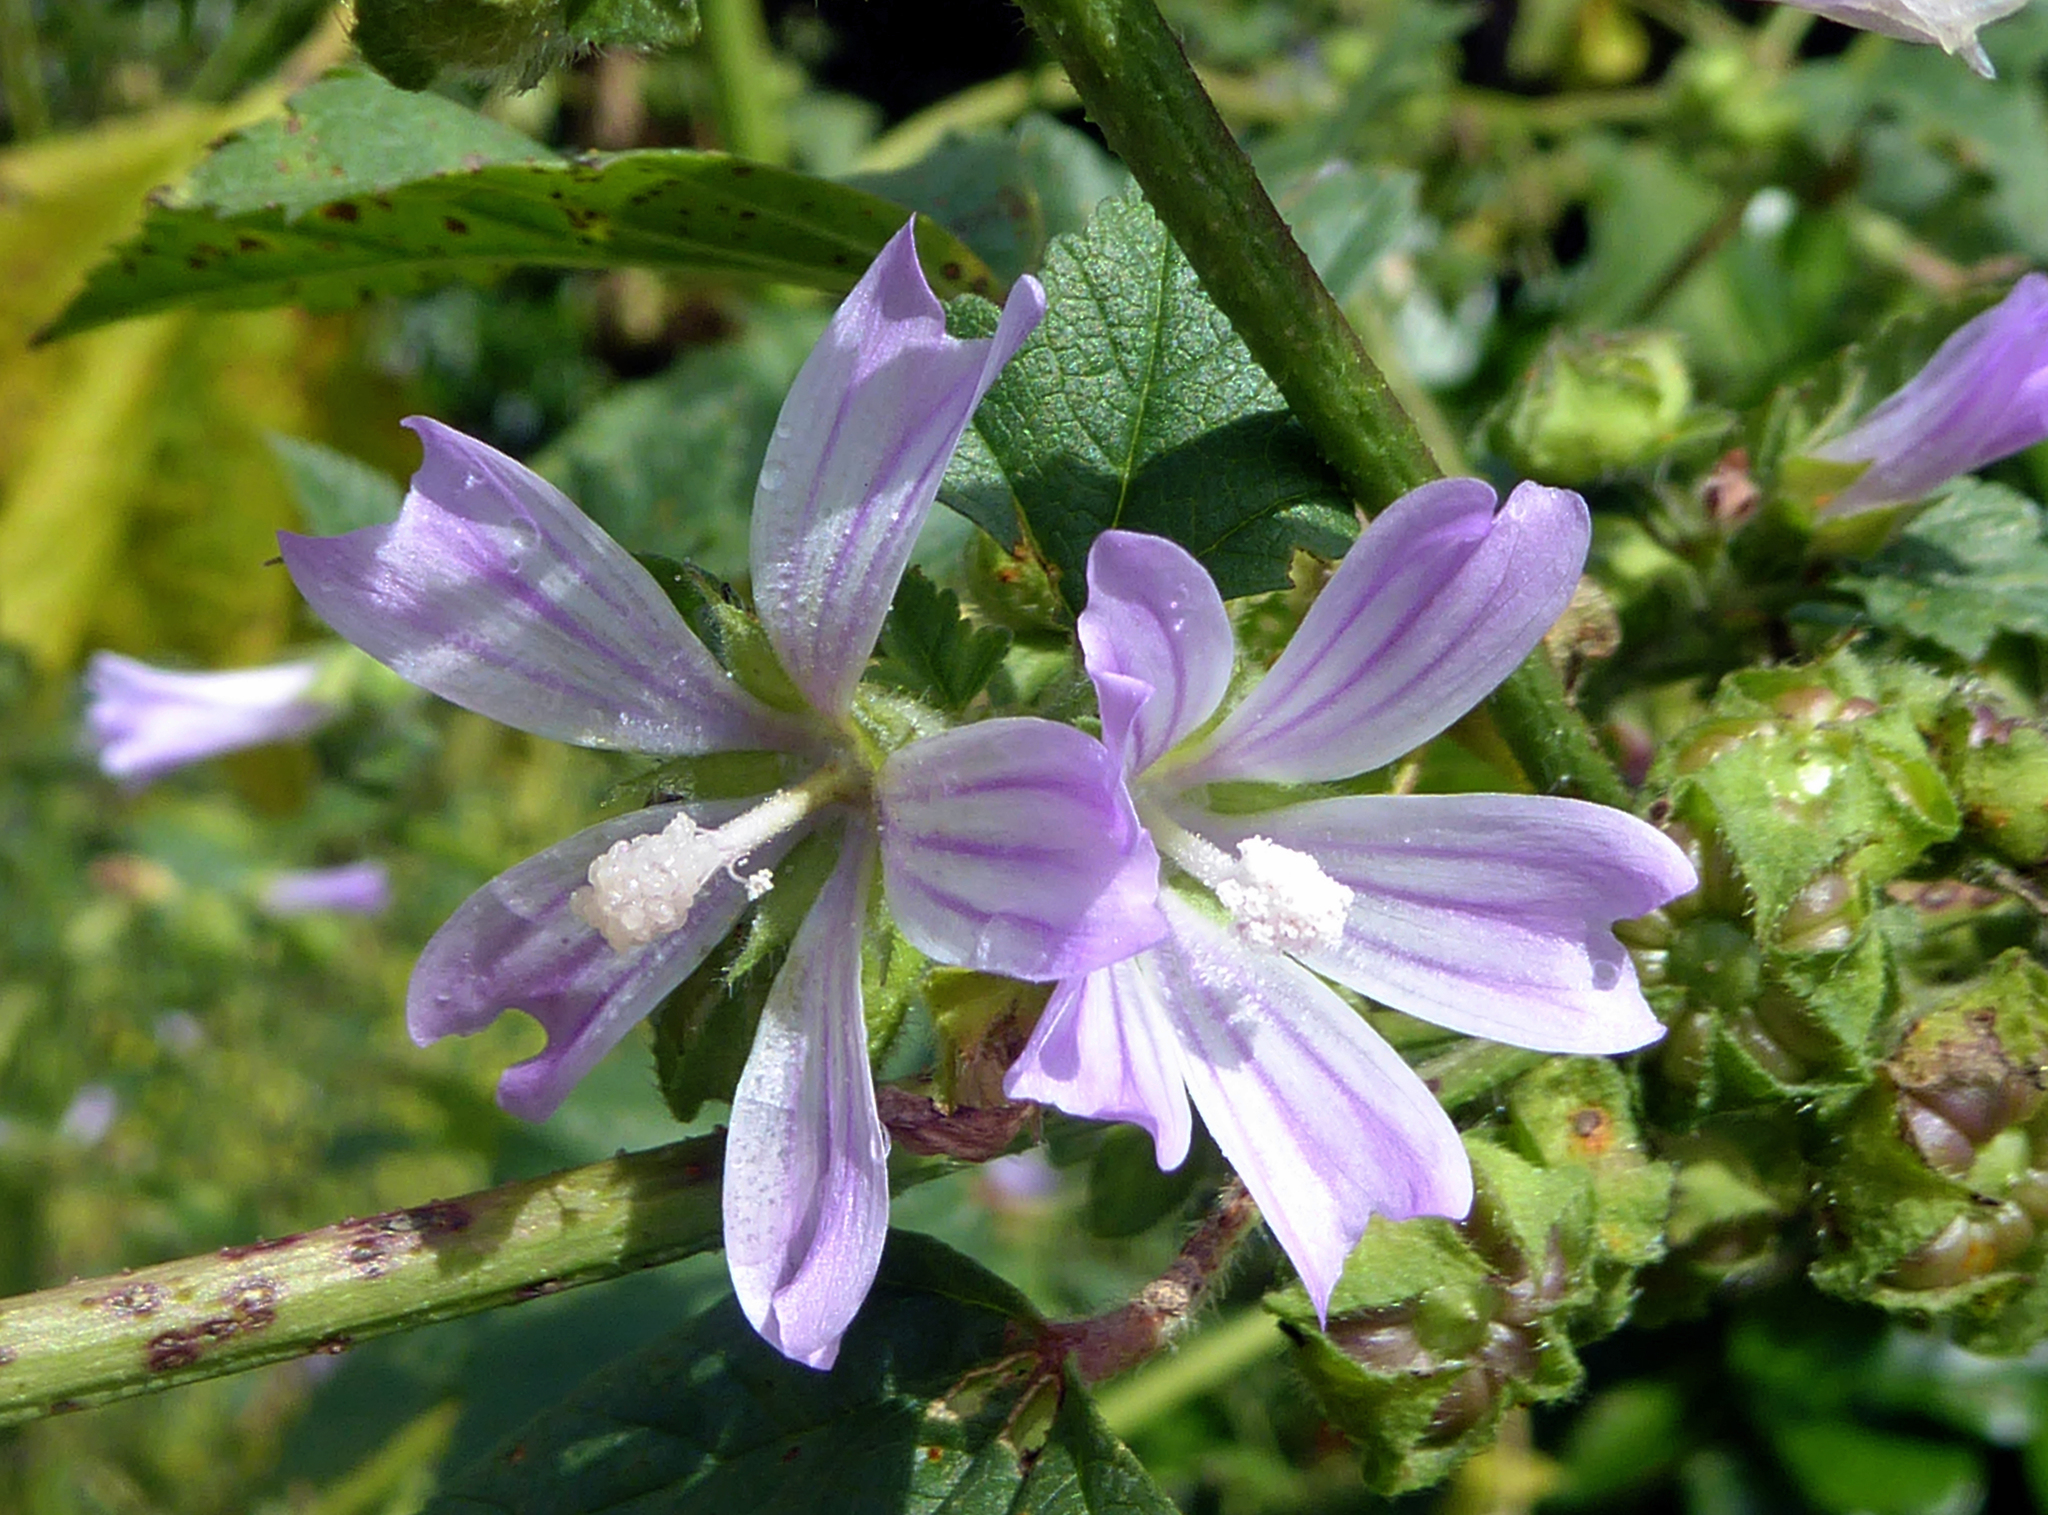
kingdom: Plantae
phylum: Tracheophyta
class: Magnoliopsida
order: Malvales
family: Malvaceae
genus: Malva
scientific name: Malva sylvestris
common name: Common mallow
